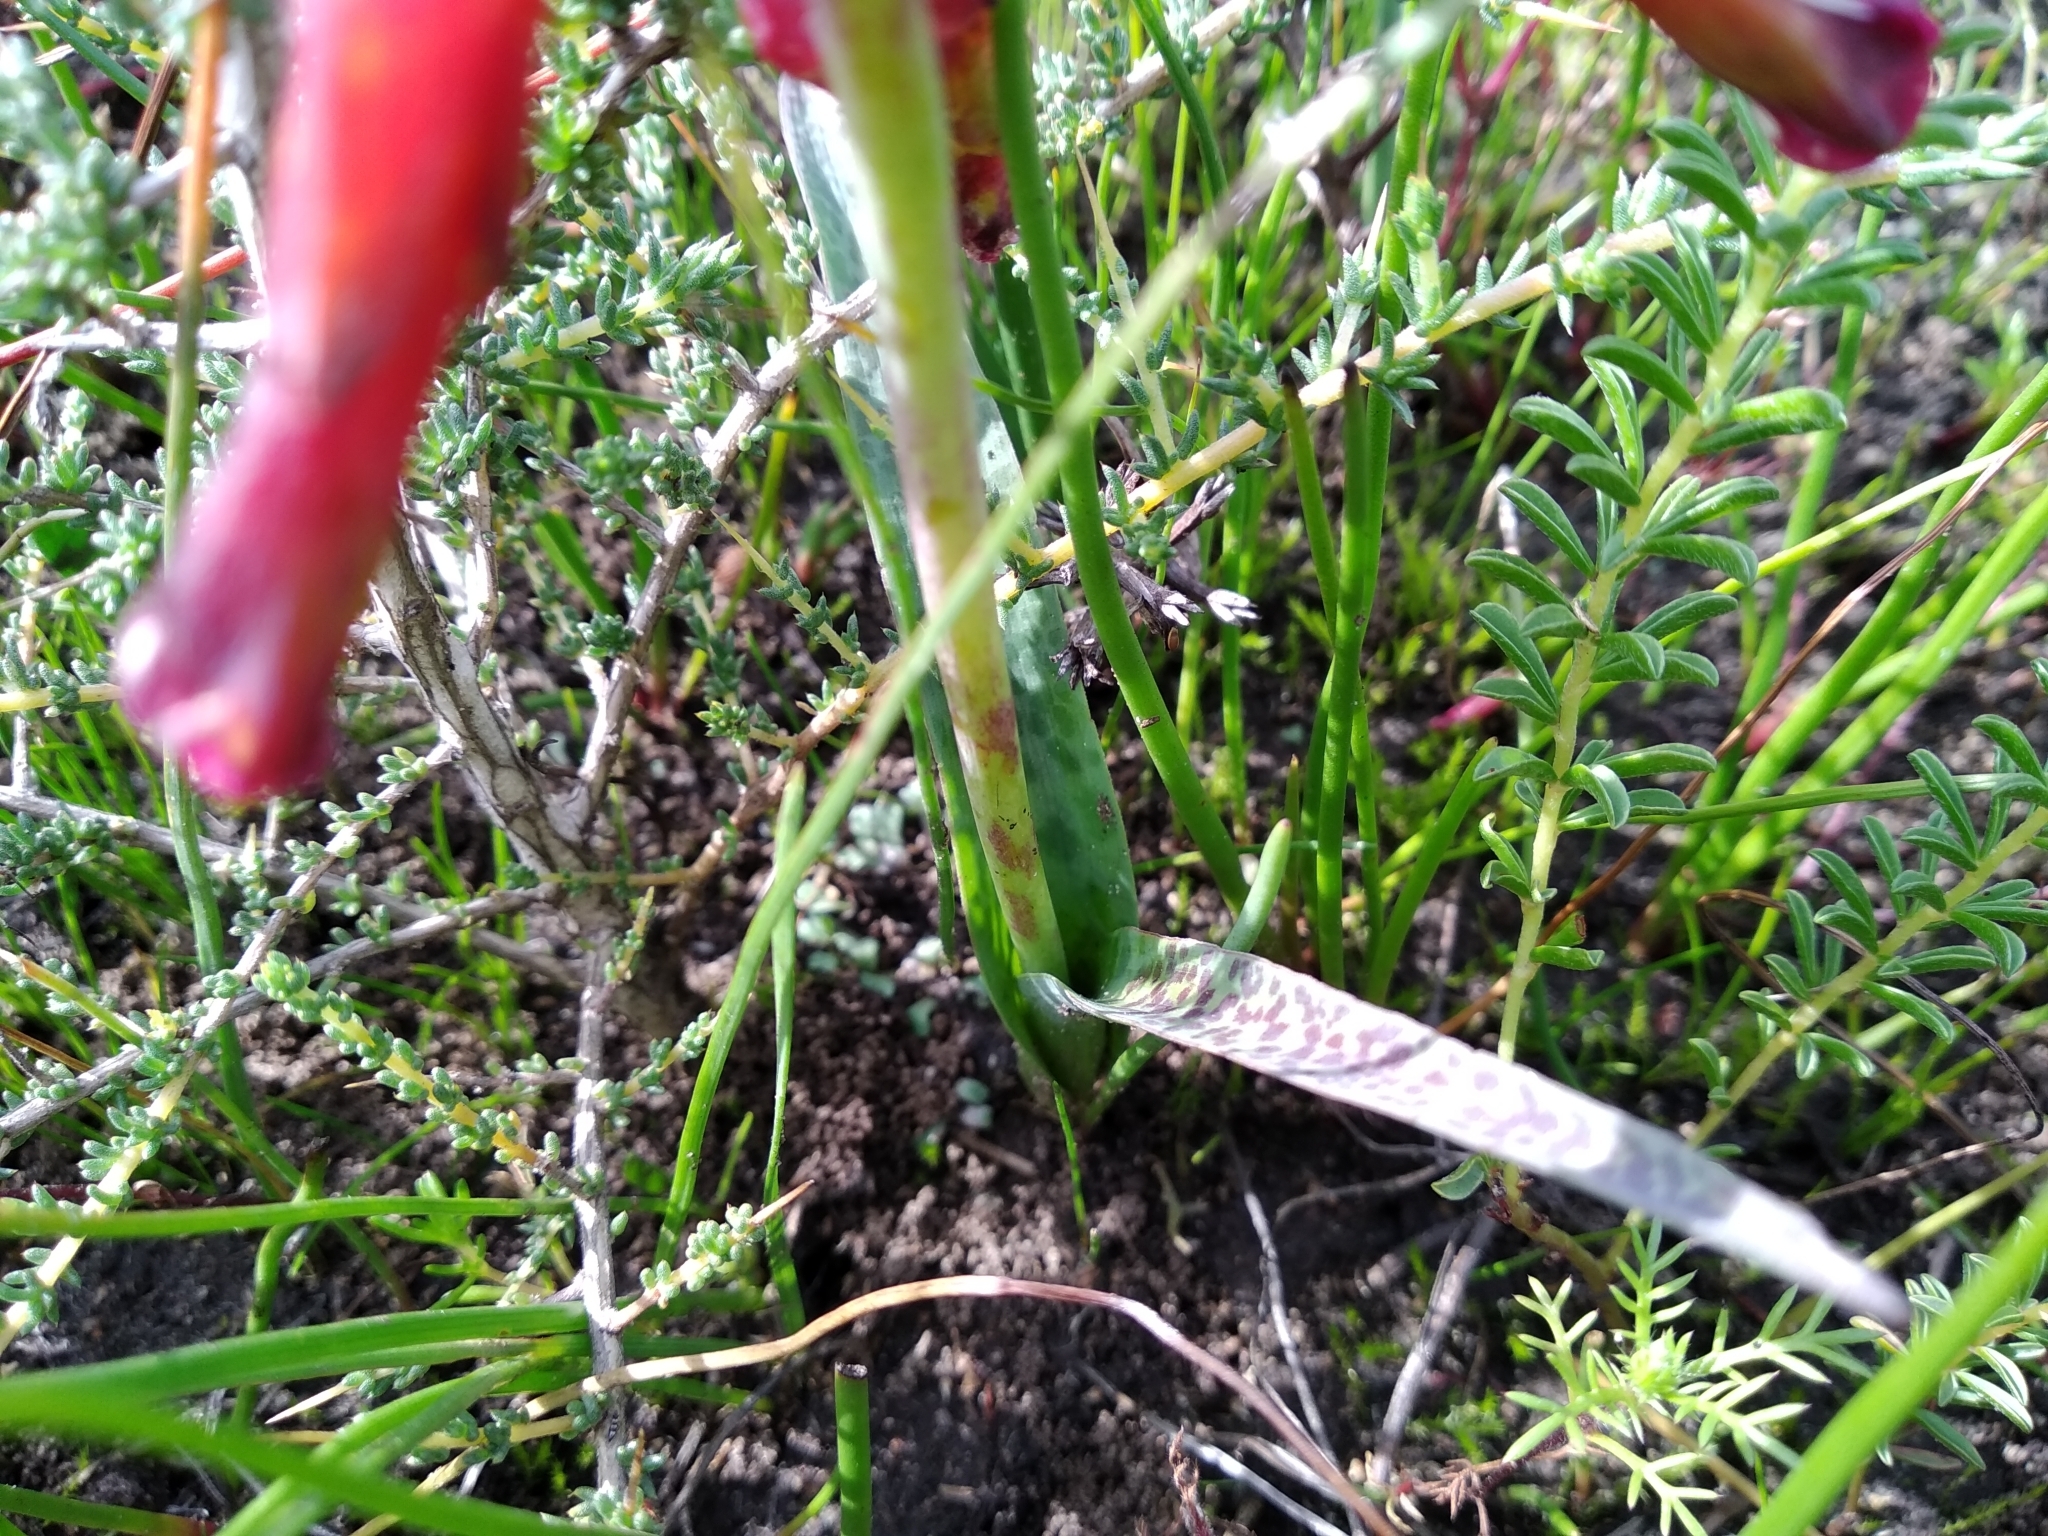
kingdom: Plantae
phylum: Tracheophyta
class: Liliopsida
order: Asparagales
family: Asparagaceae
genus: Lachenalia
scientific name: Lachenalia quadricolor
